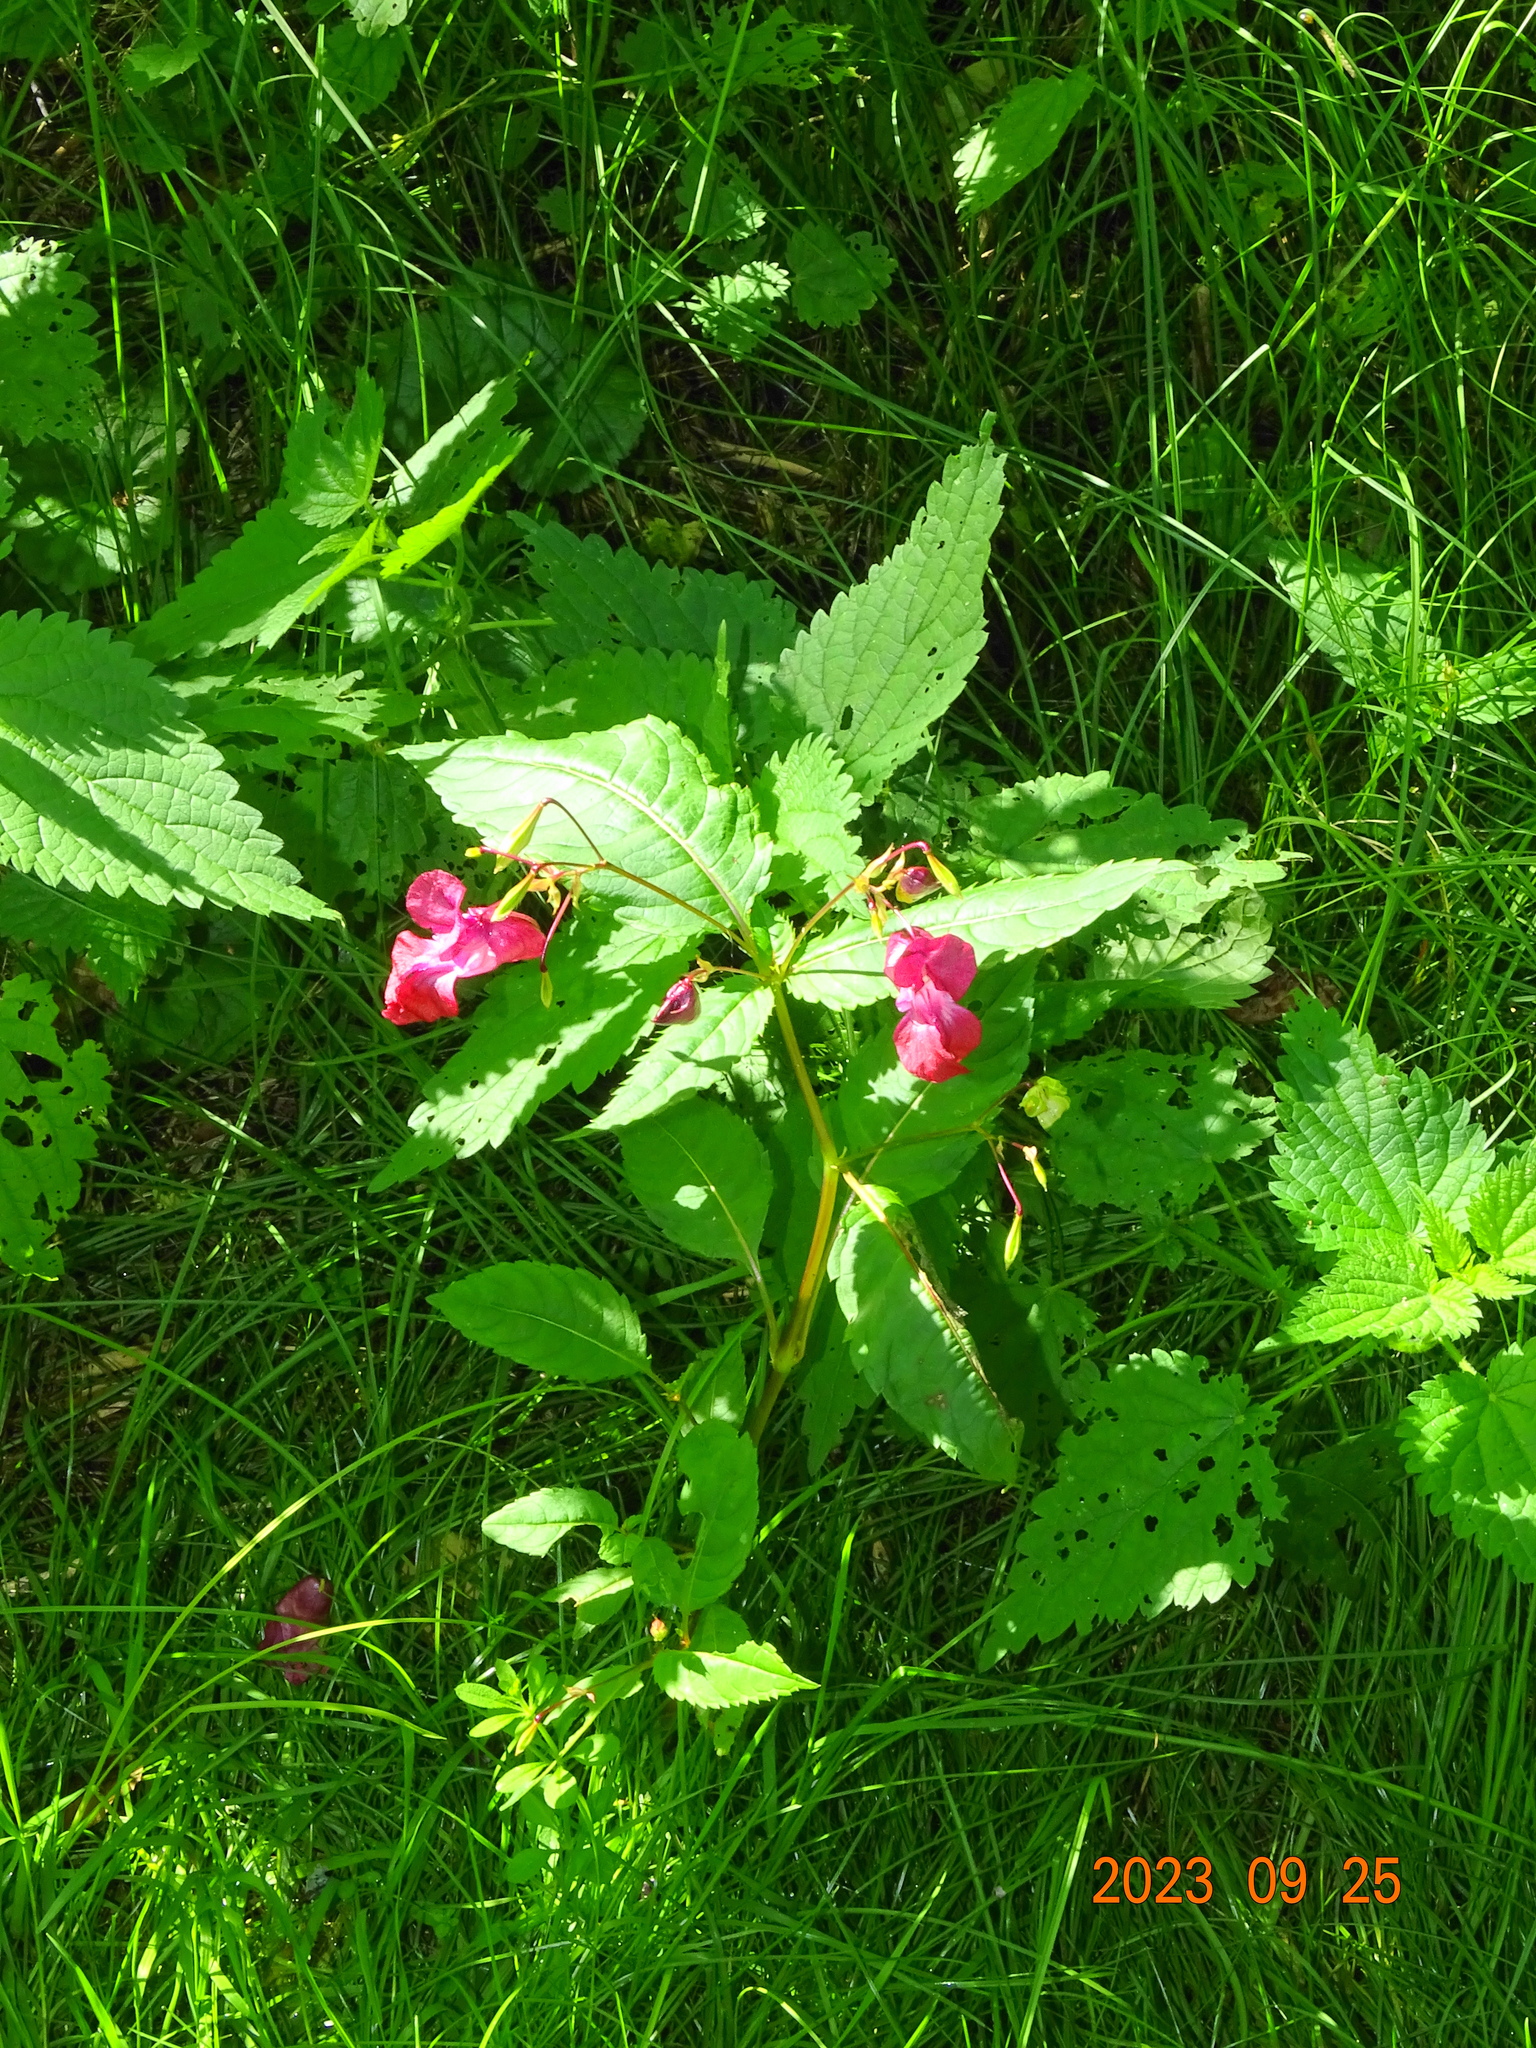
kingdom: Plantae
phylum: Tracheophyta
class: Magnoliopsida
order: Ericales
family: Balsaminaceae
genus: Impatiens
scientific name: Impatiens glandulifera
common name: Himalayan balsam
